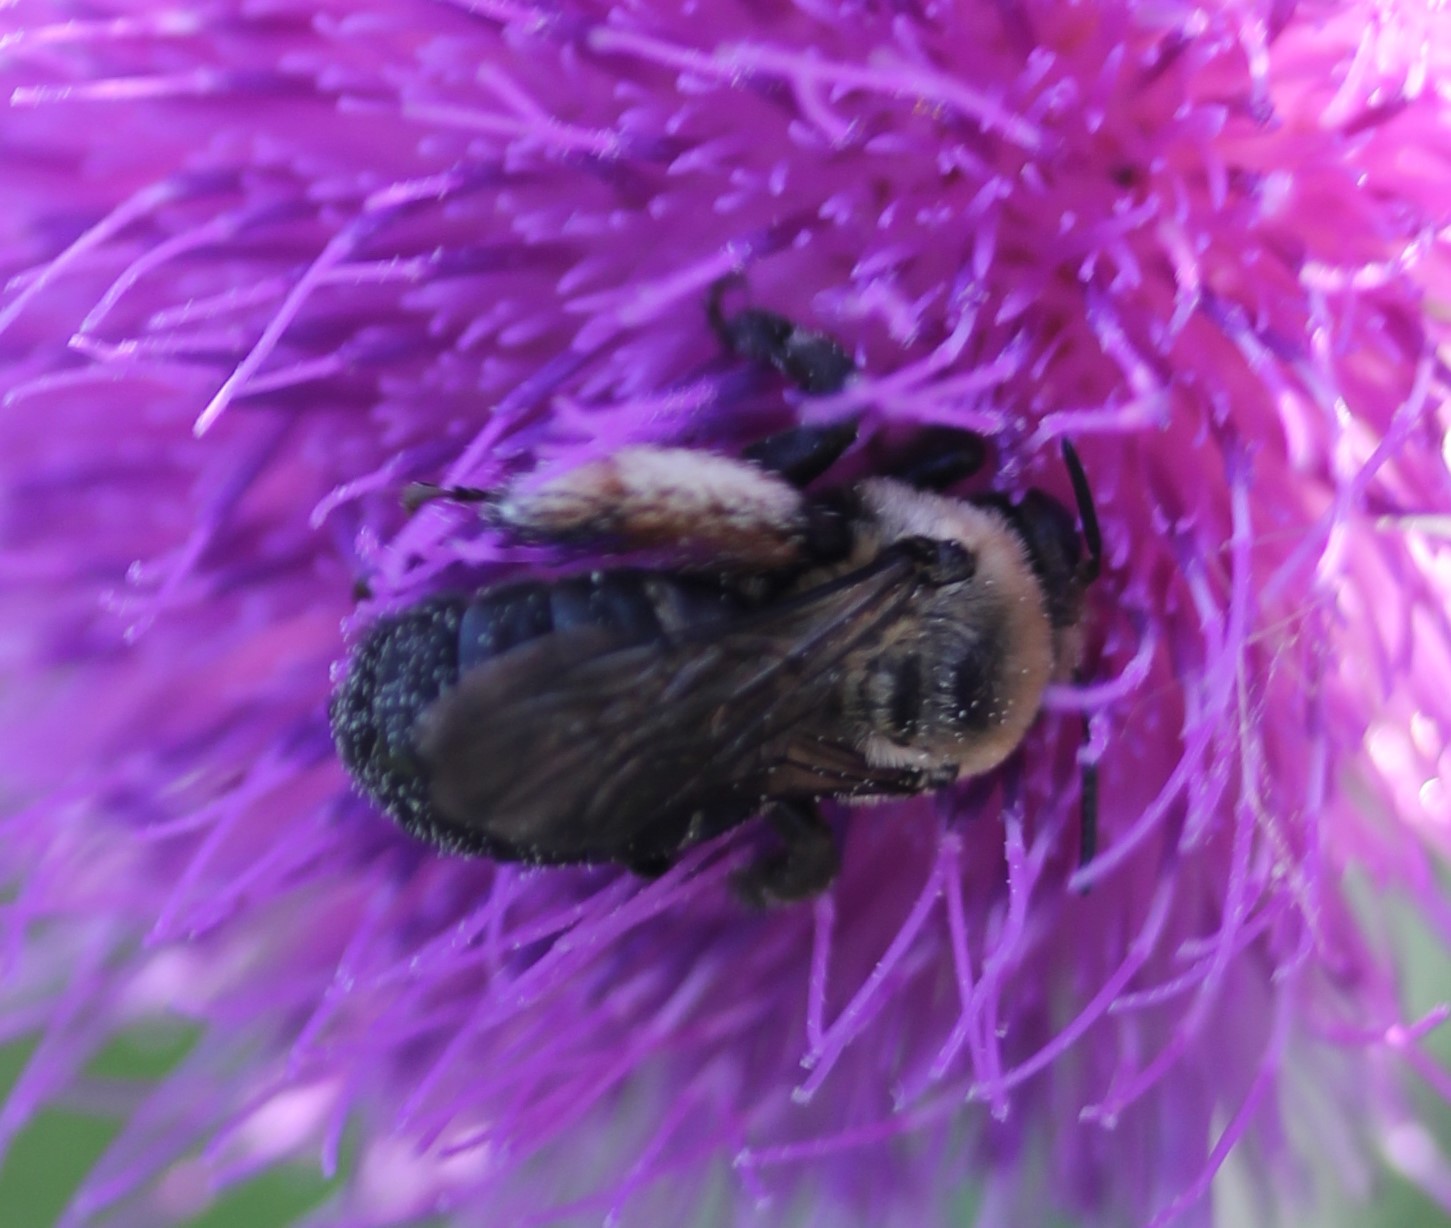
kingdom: Animalia
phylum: Arthropoda
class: Insecta
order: Hymenoptera
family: Apidae
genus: Melissodes
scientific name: Melissodes desponsus
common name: Thistle long-horned bee
